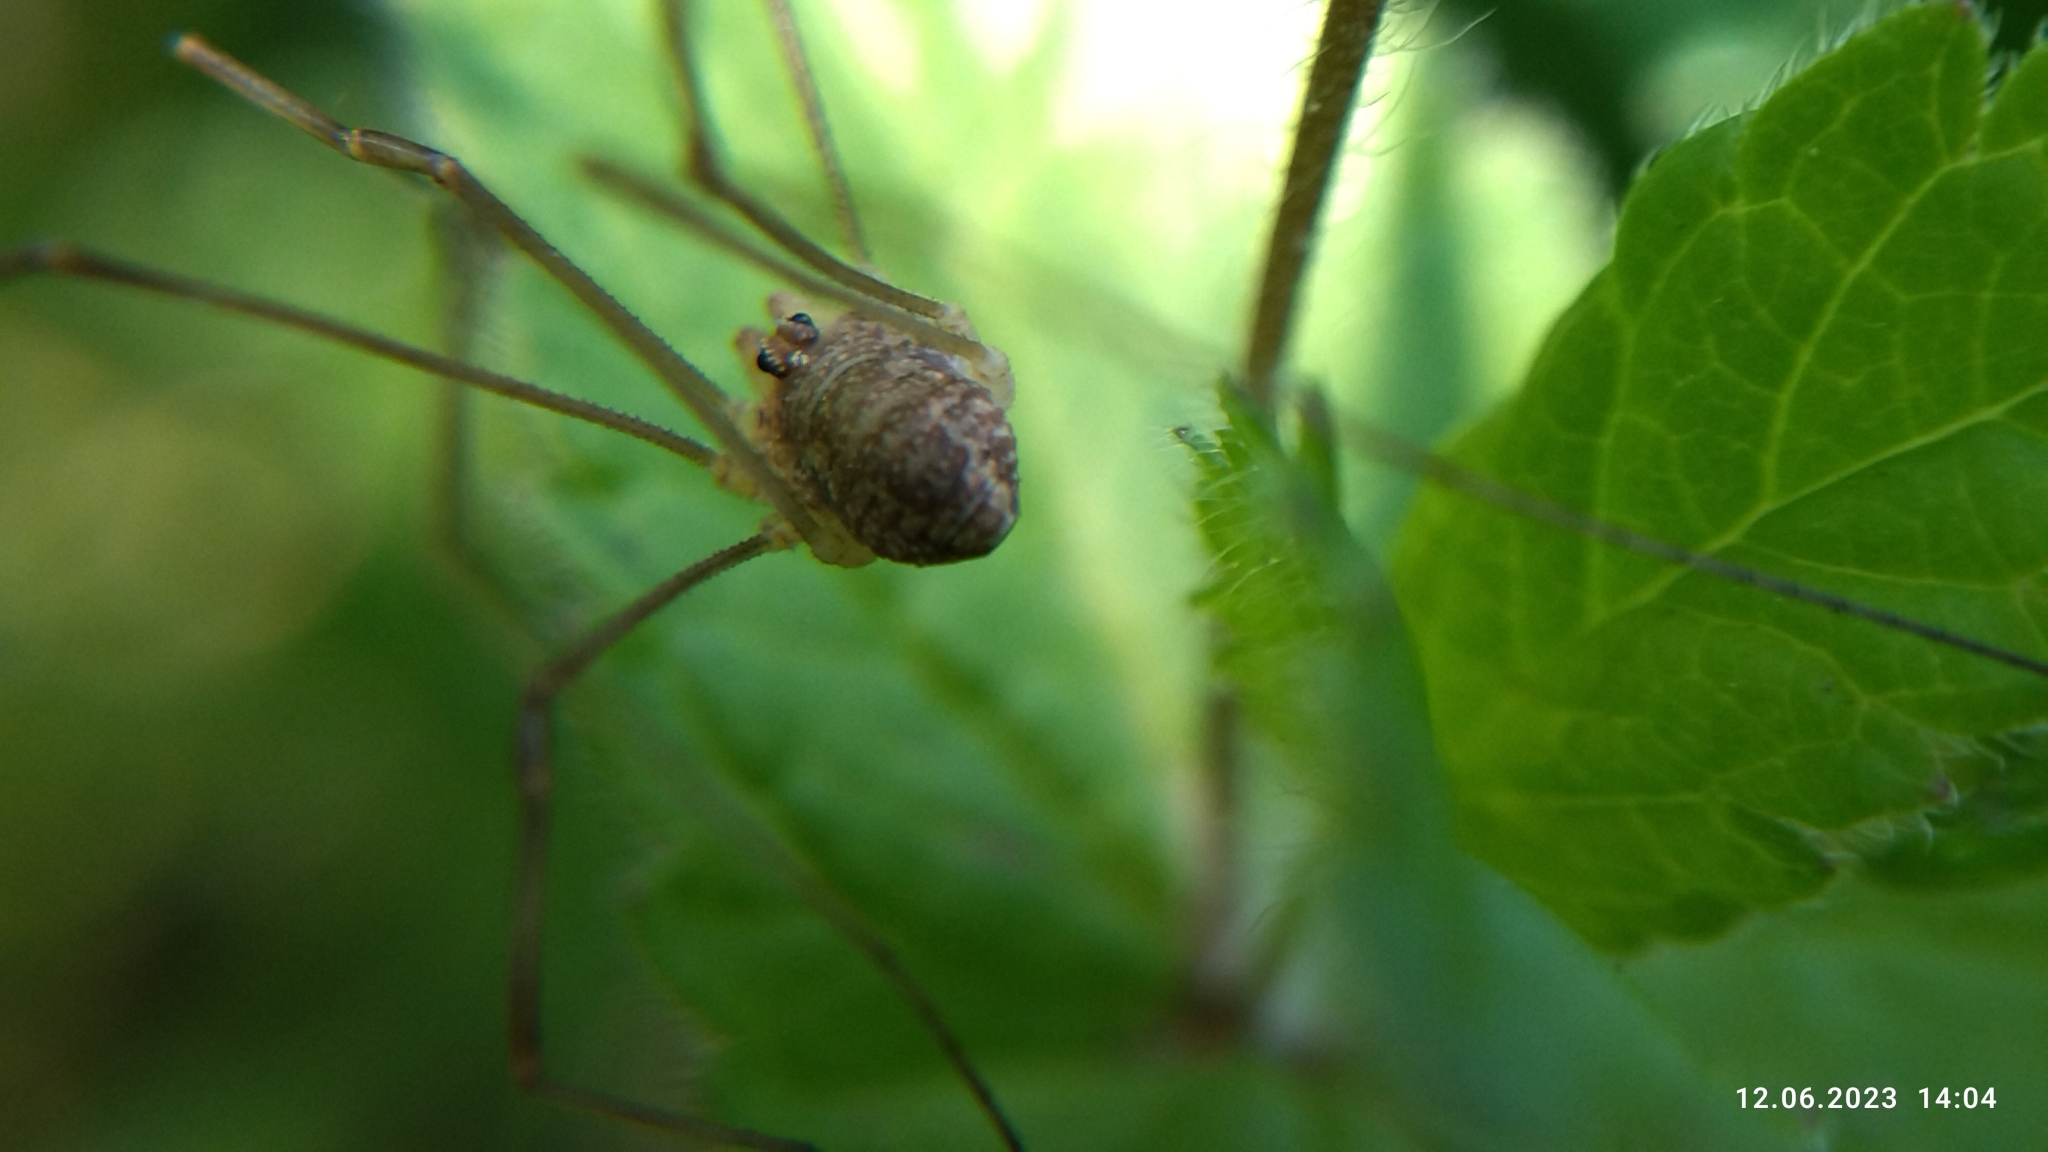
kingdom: Animalia
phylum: Arthropoda
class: Arachnida
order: Opiliones
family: Phalangiidae
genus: Rilaena
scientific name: Rilaena triangularis
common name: Spring harvestman
